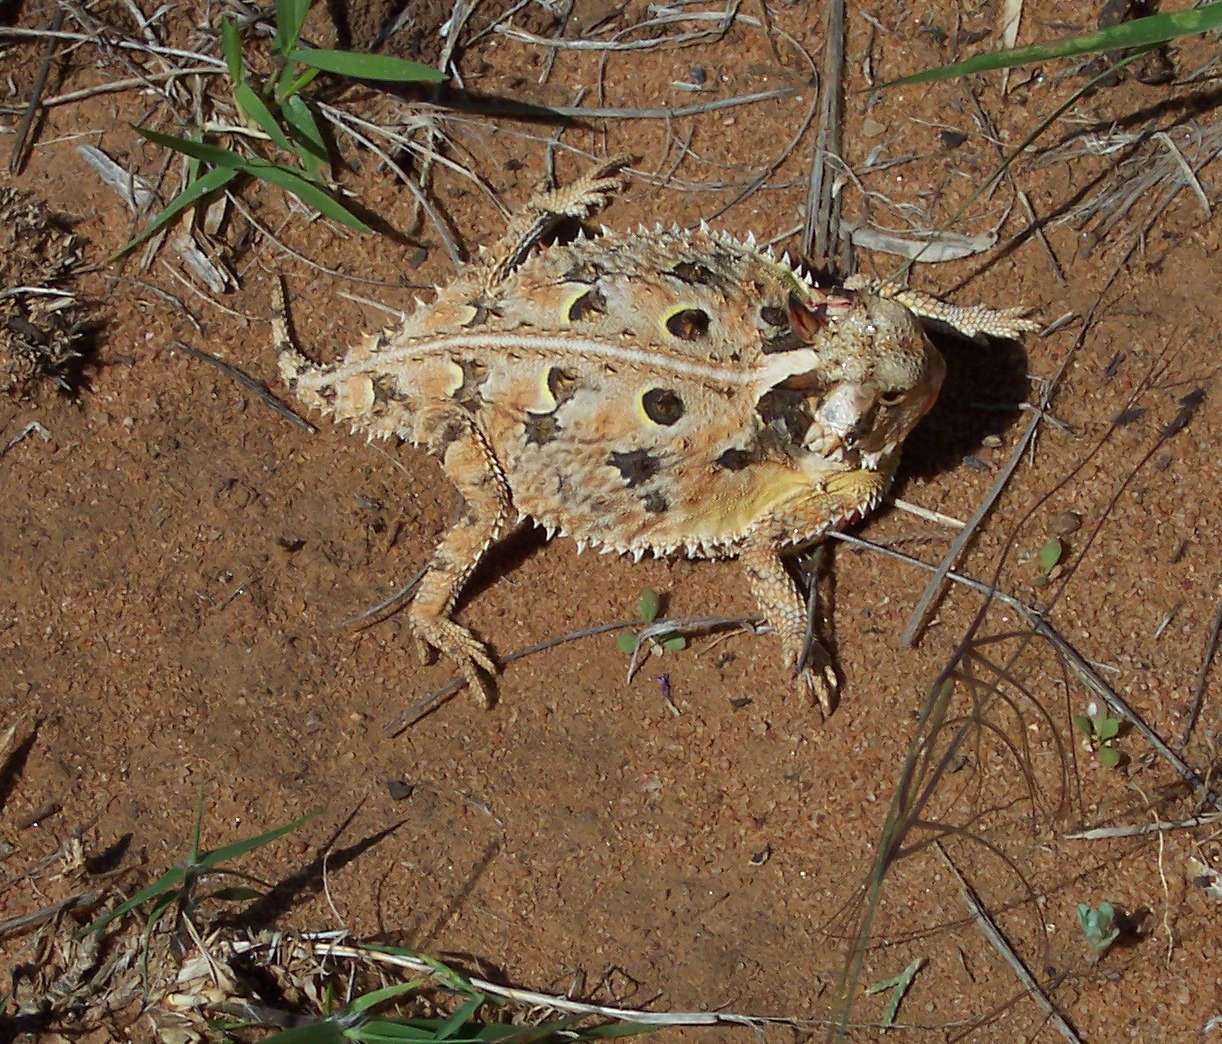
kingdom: Animalia
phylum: Chordata
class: Squamata
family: Phrynosomatidae
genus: Phrynosoma
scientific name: Phrynosoma cornutum
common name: Texas horned lizard
